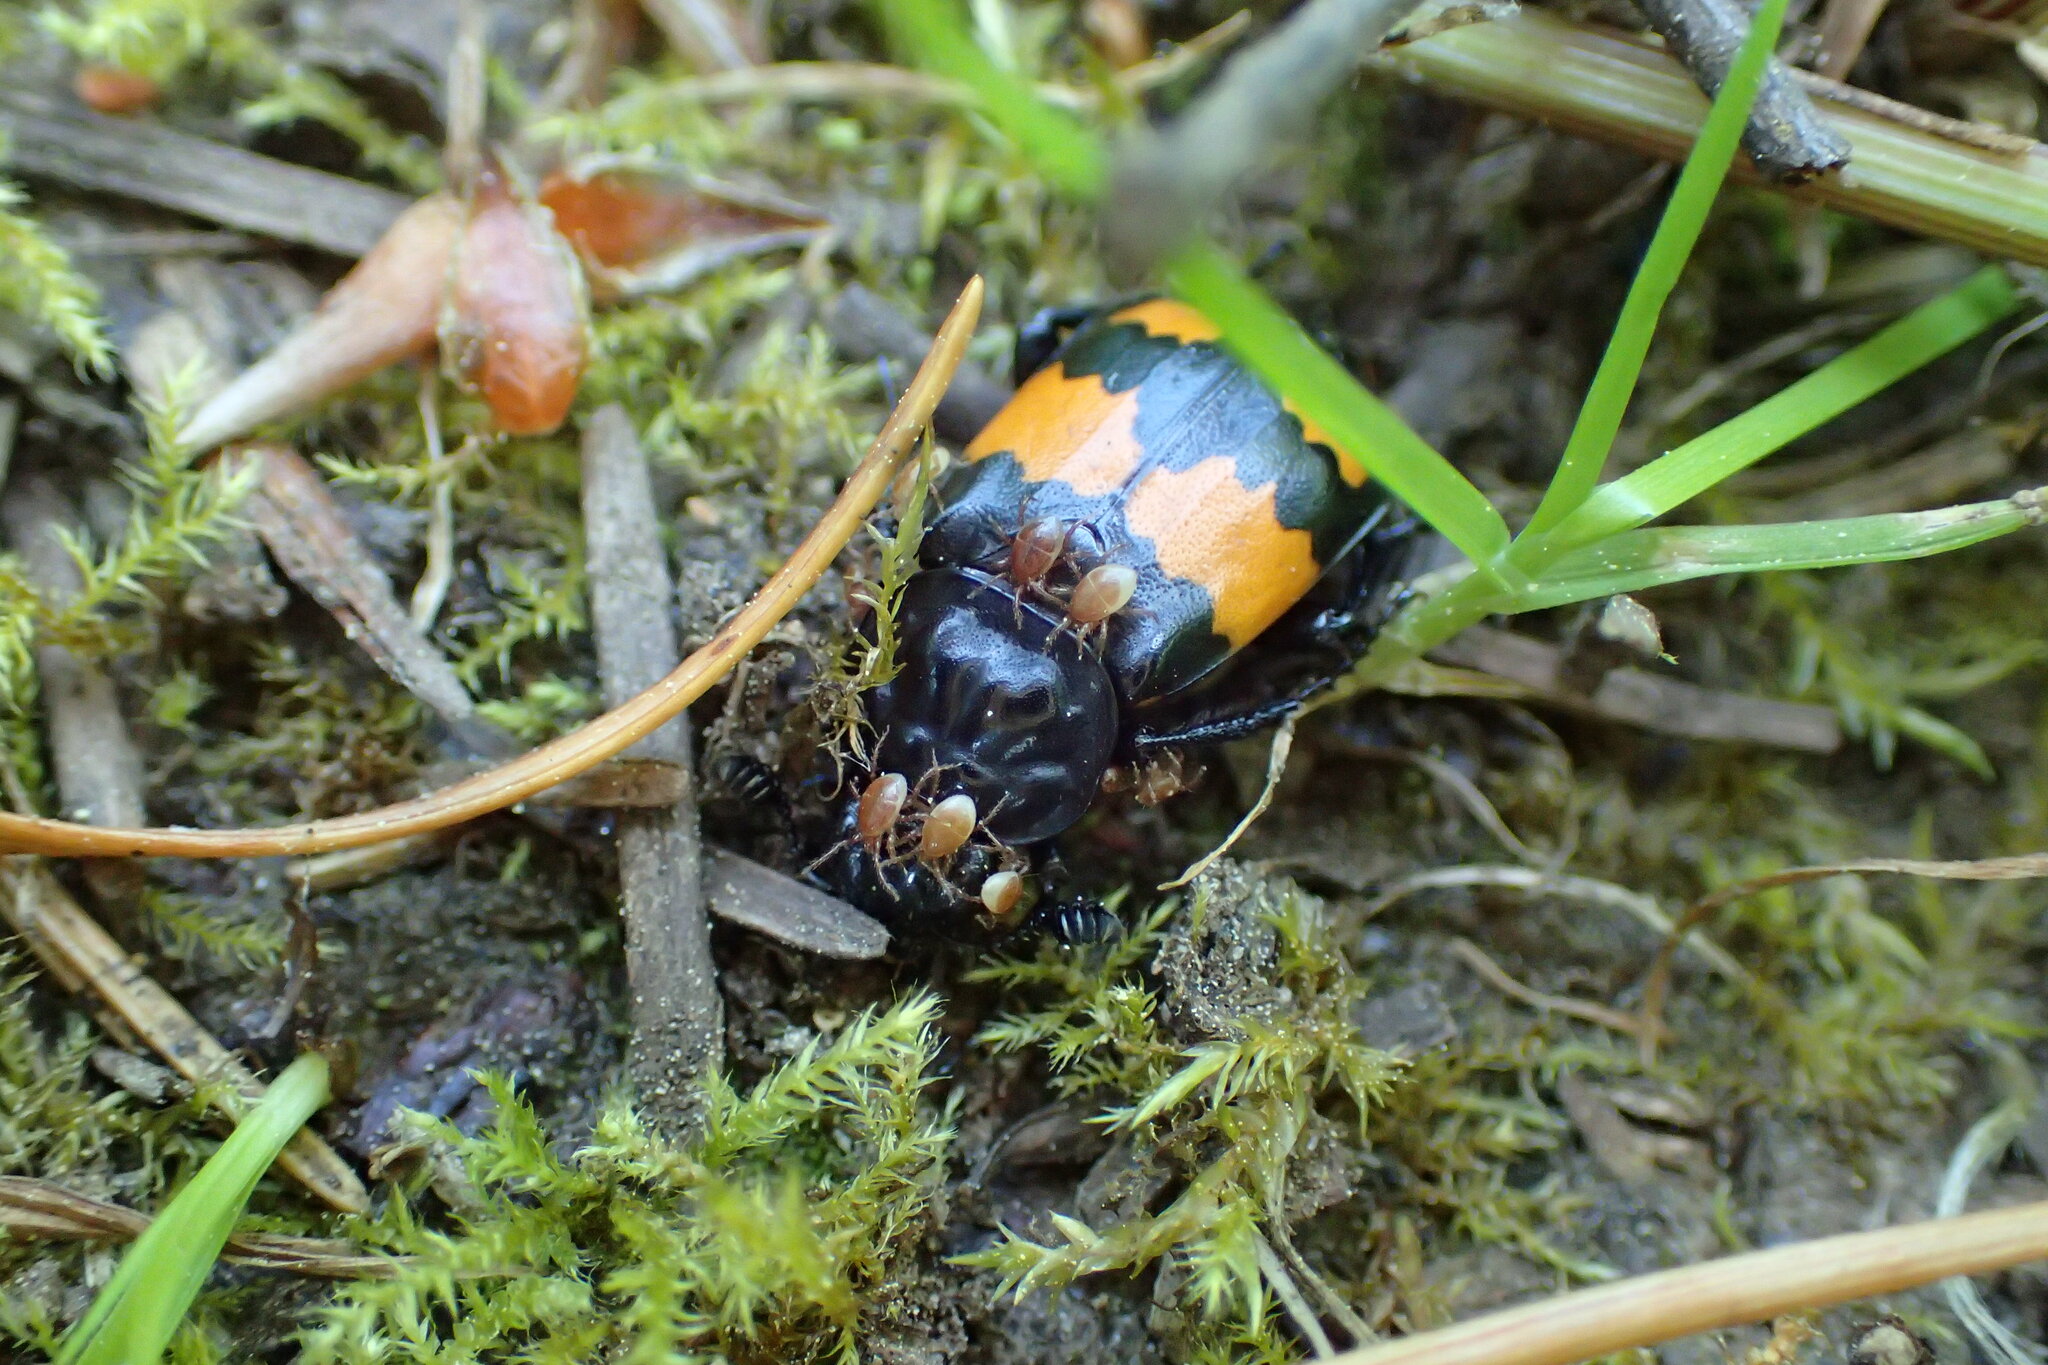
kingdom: Animalia
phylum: Arthropoda
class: Insecta
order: Coleoptera
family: Staphylinidae
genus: Nicrophorus
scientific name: Nicrophorus vespilloides
